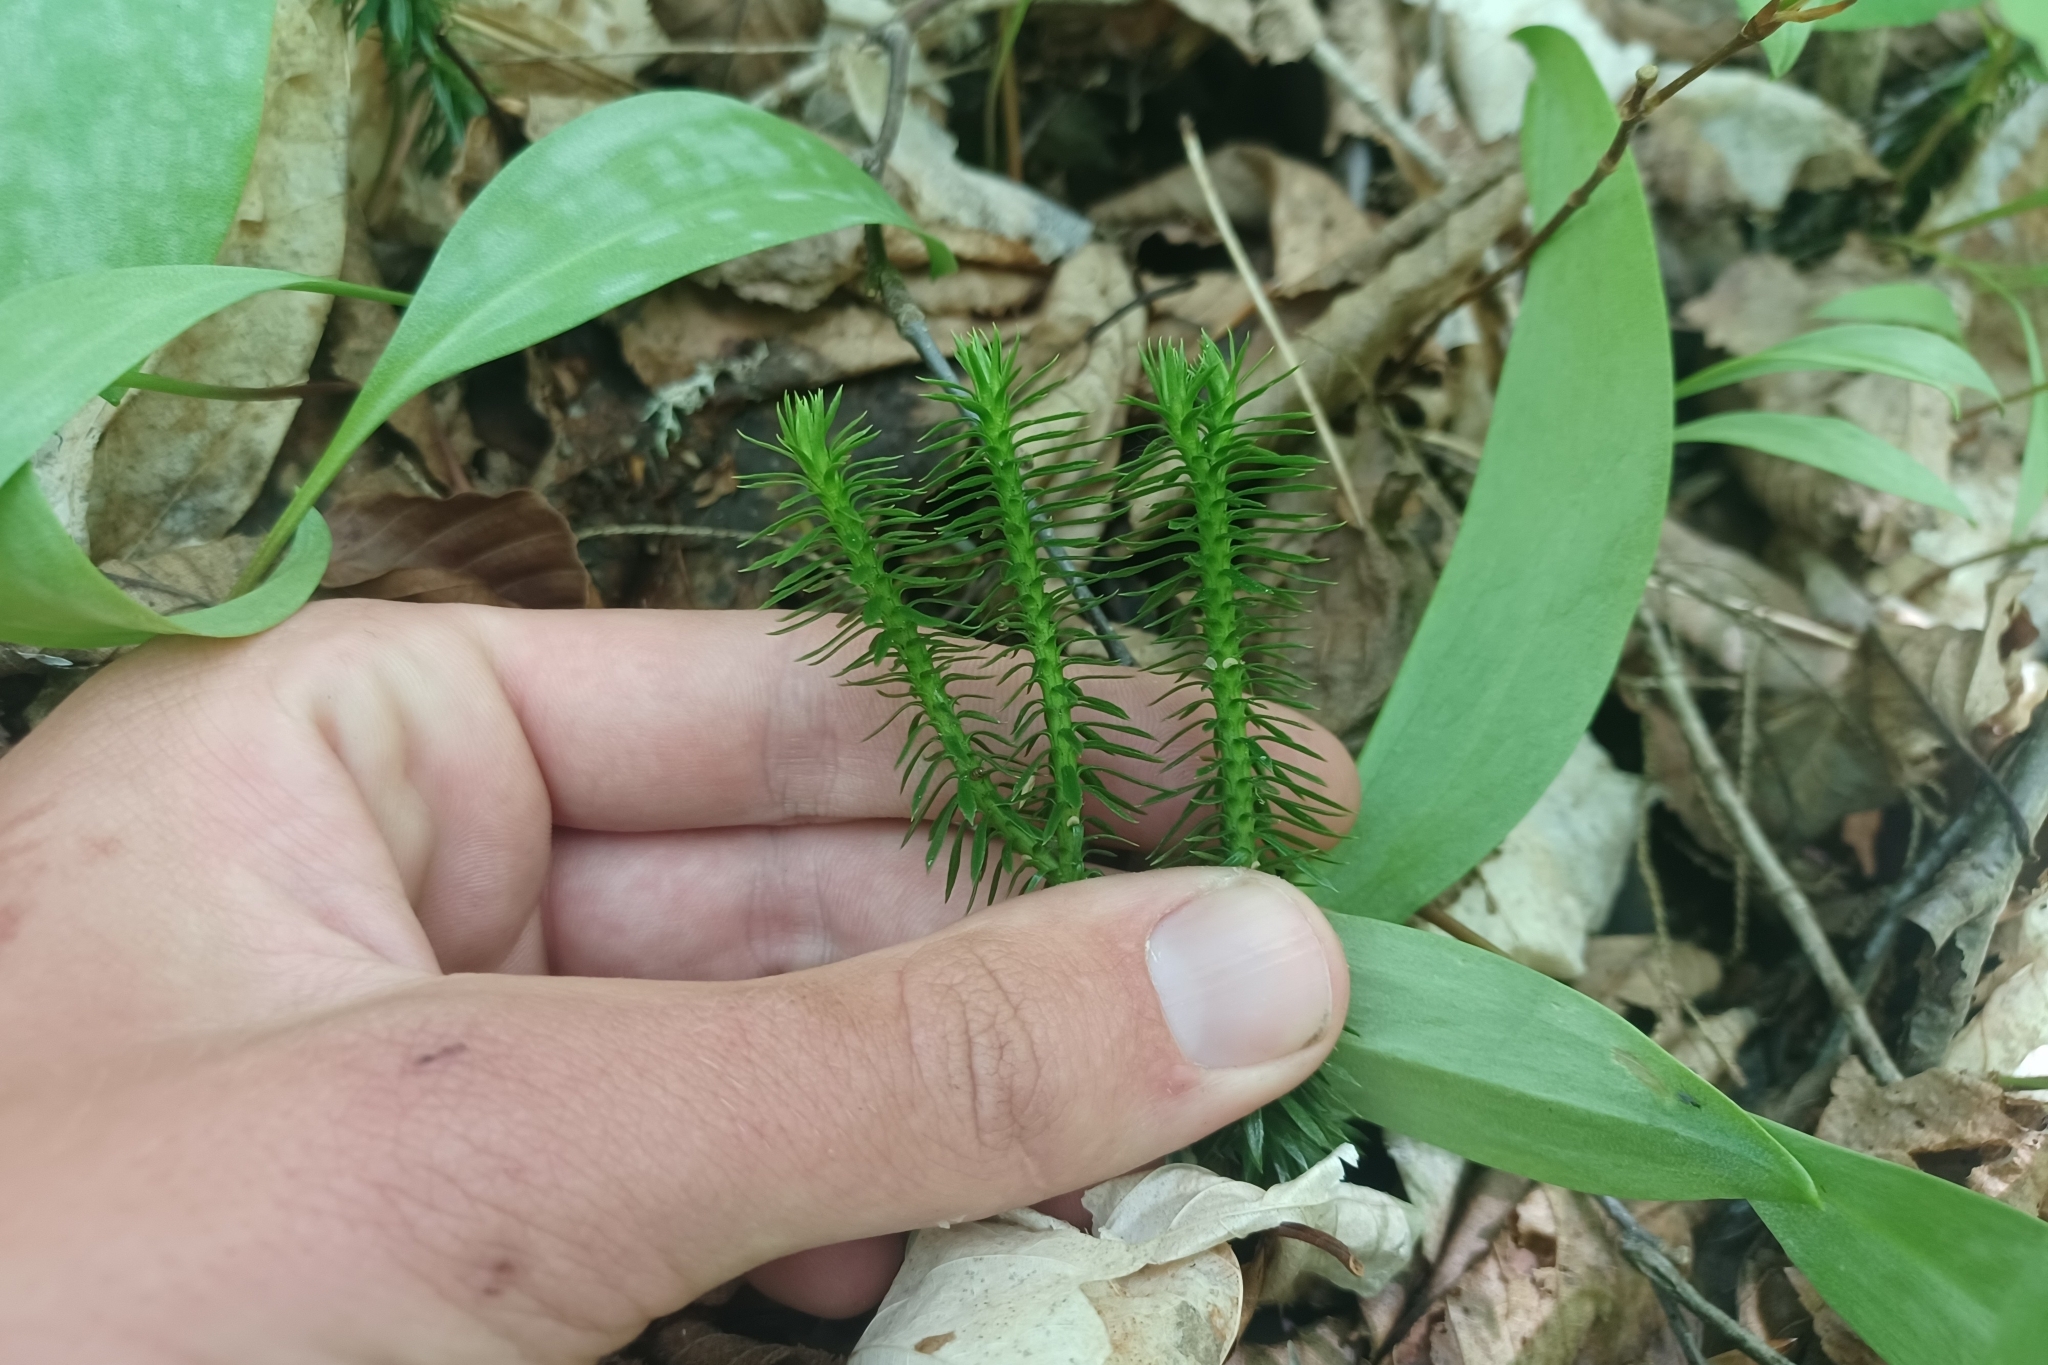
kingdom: Plantae
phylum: Tracheophyta
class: Lycopodiopsida
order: Lycopodiales
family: Lycopodiaceae
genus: Huperzia
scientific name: Huperzia lucidula
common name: Shining clubmoss
